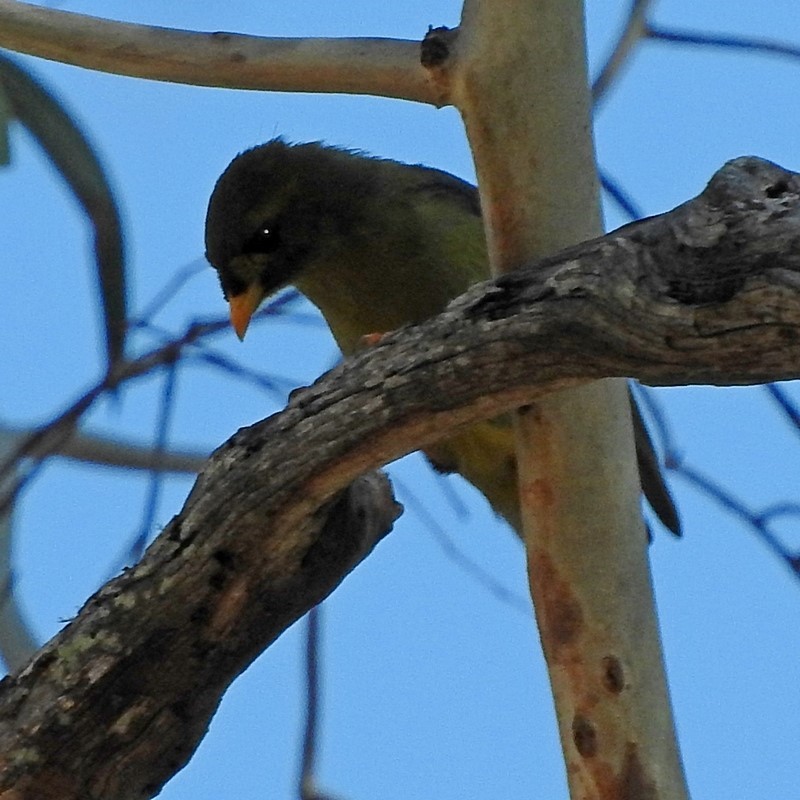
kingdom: Animalia
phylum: Chordata
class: Aves
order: Passeriformes
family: Meliphagidae
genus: Manorina
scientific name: Manorina melanophrys
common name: Bell miner
